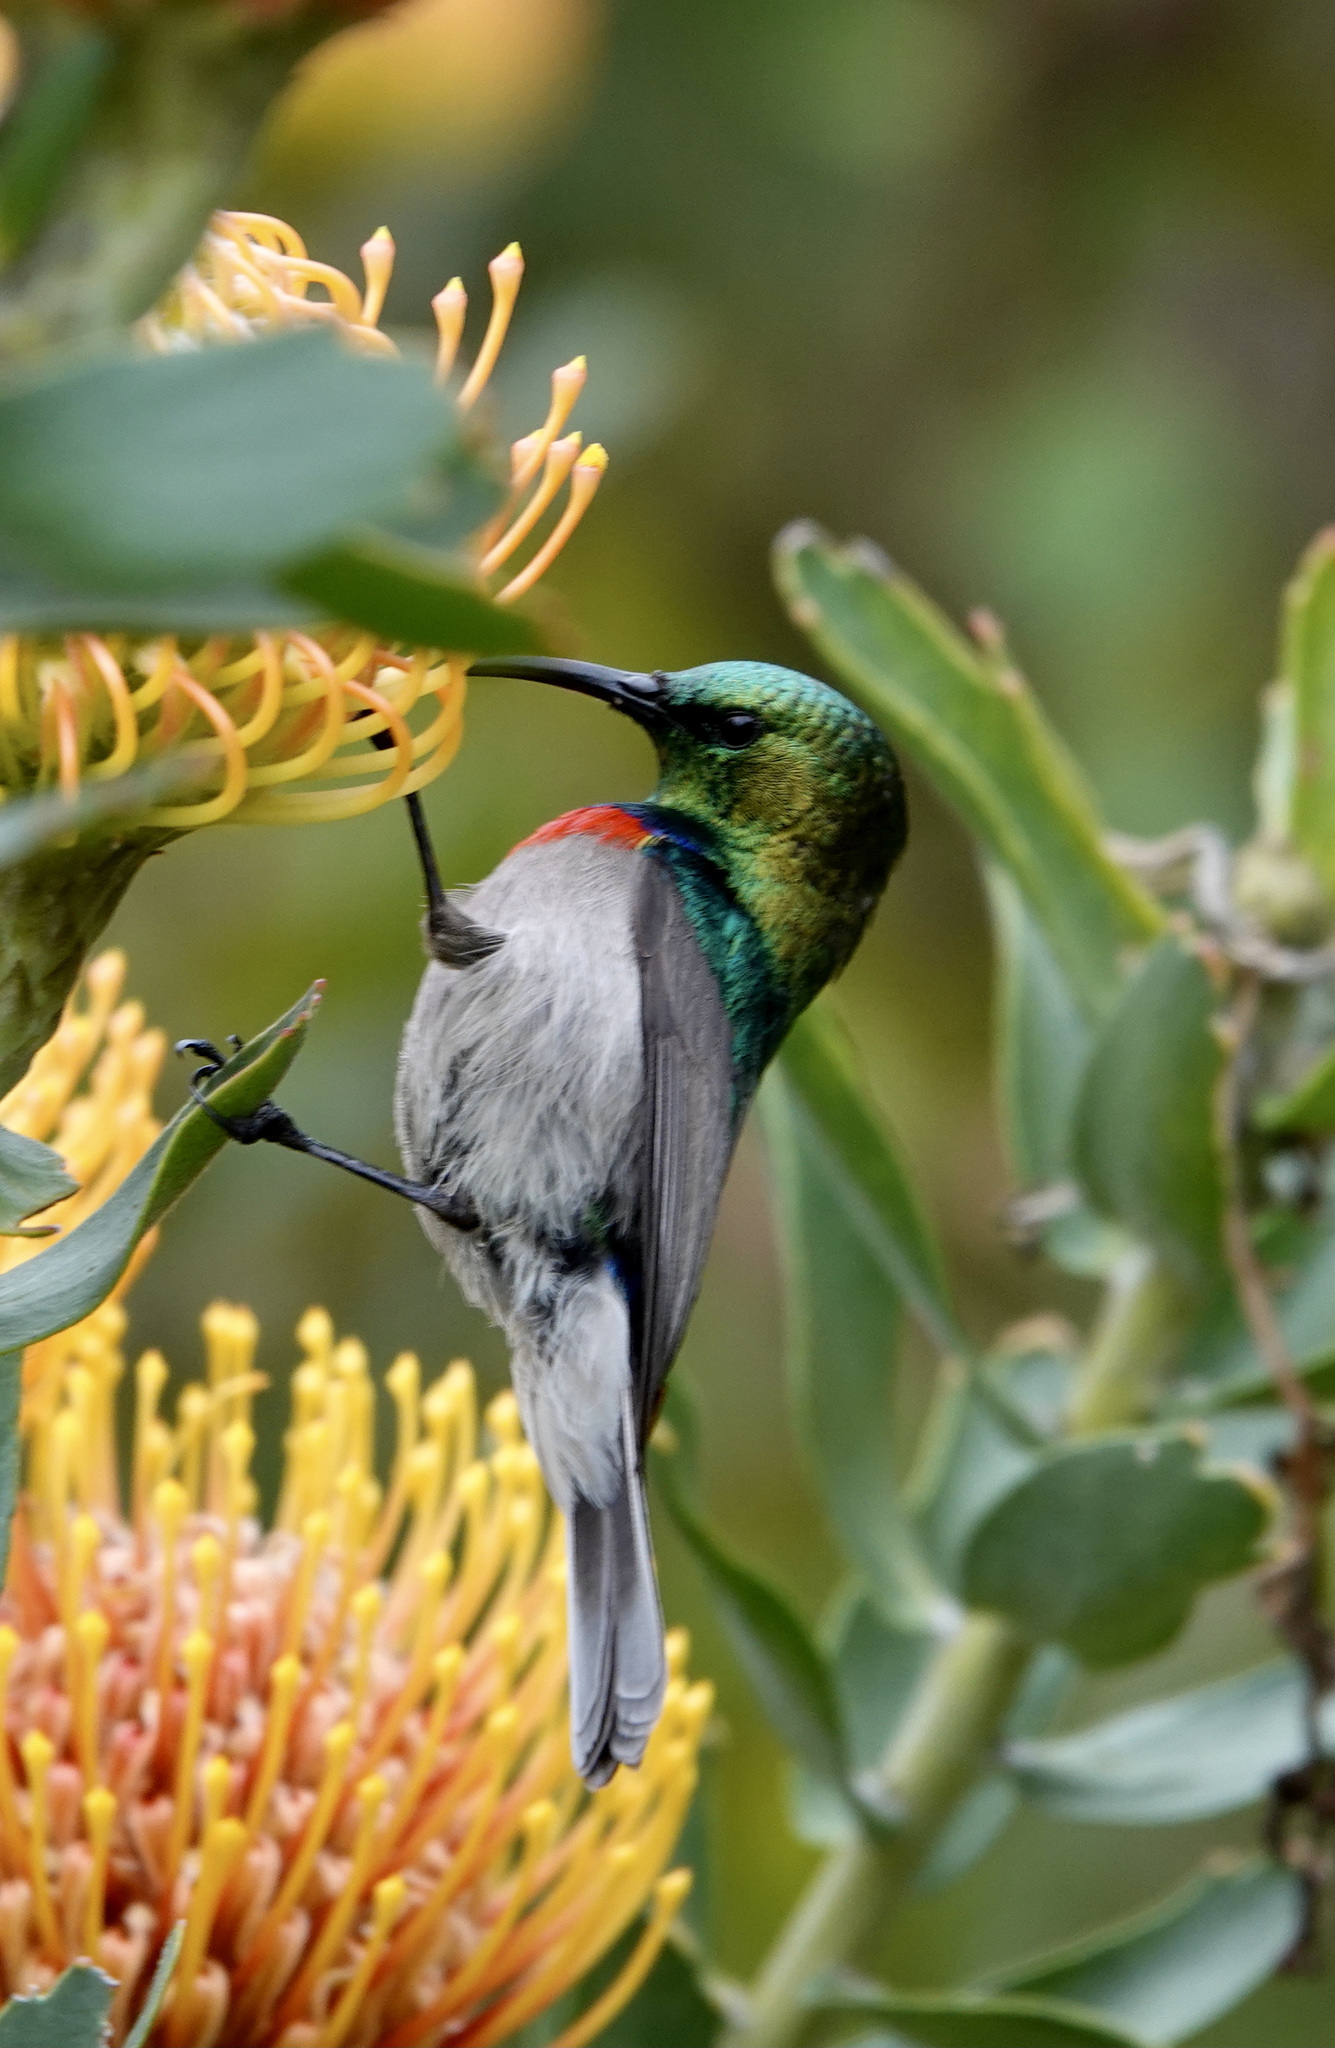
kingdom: Animalia
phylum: Chordata
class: Aves
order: Passeriformes
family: Nectariniidae
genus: Cinnyris
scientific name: Cinnyris chalybeus
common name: Southern double-collared sunbird
